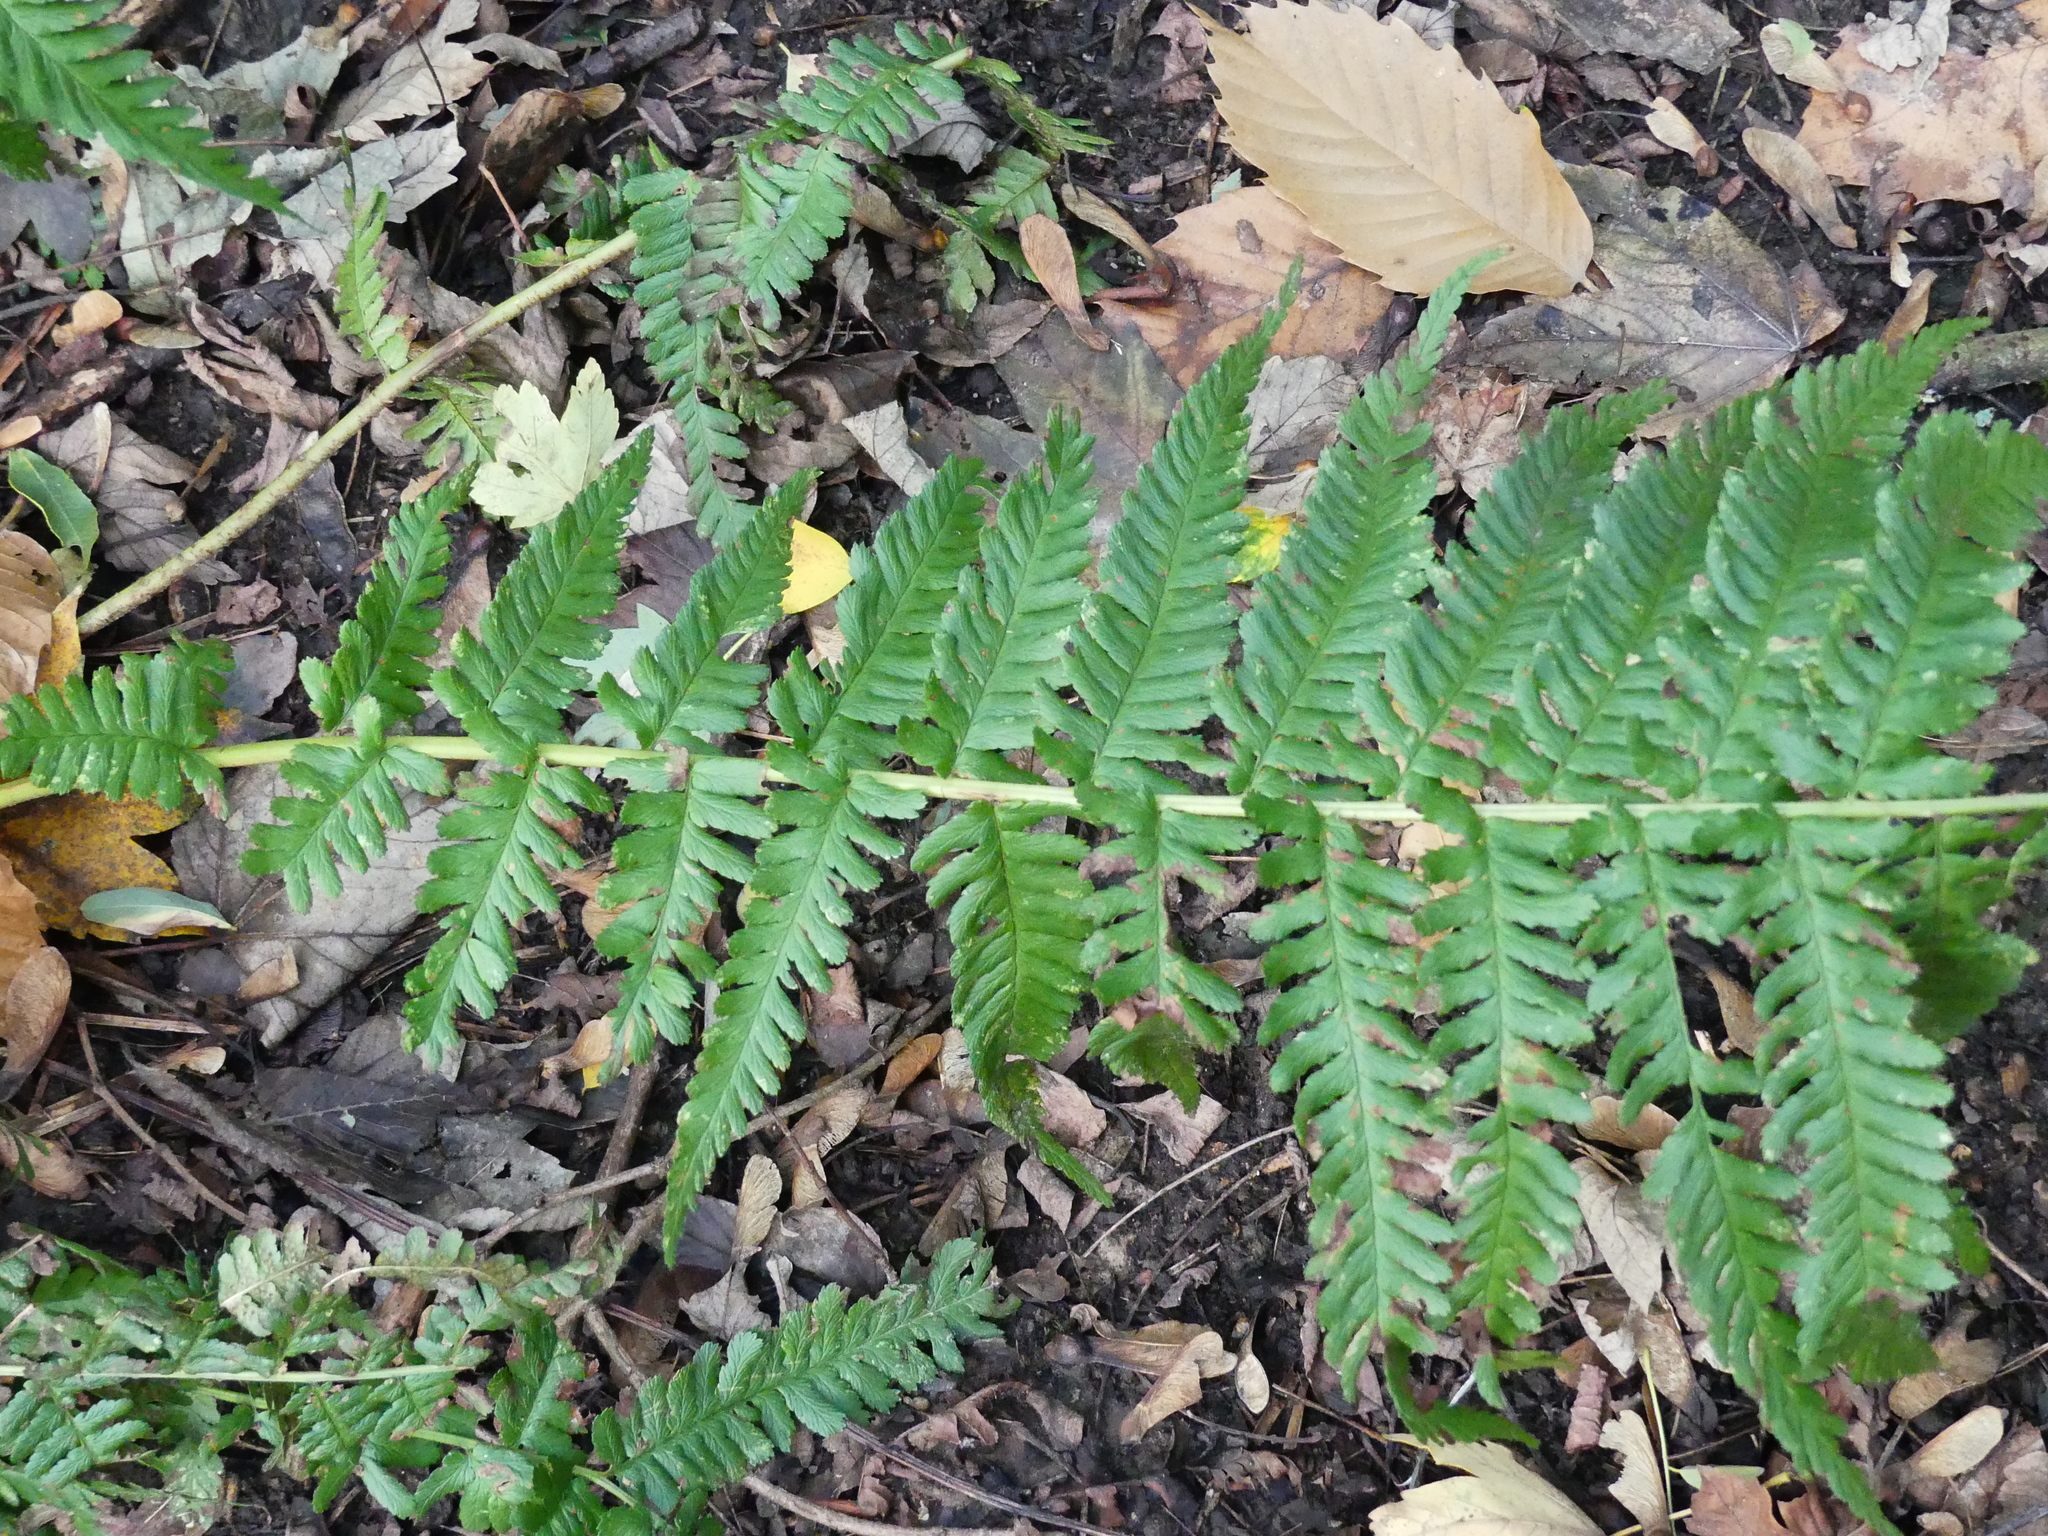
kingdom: Plantae
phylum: Tracheophyta
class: Polypodiopsida
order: Polypodiales
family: Dryopteridaceae
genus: Dryopteris
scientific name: Dryopteris filix-mas
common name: Male fern
